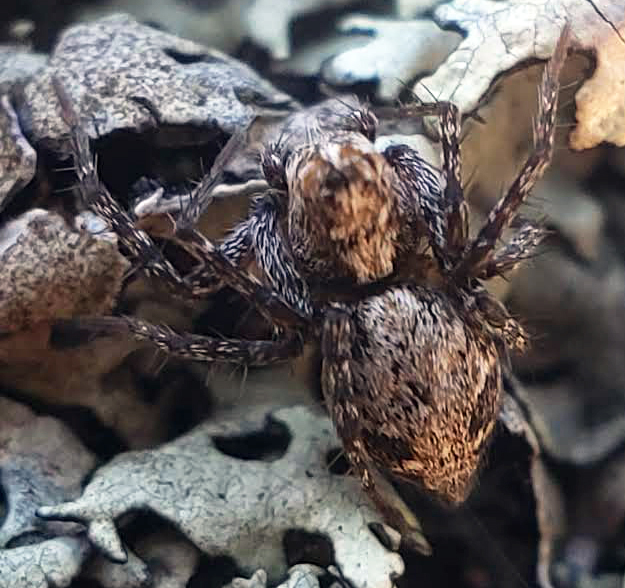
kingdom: Animalia
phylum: Arthropoda
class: Arachnida
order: Araneae
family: Oxyopidae
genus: Oxyopes
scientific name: Oxyopes scalaris
